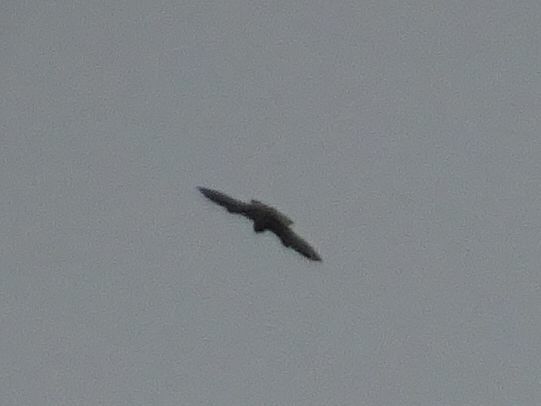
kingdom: Animalia
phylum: Chordata
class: Aves
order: Falconiformes
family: Falconidae
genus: Falco
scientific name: Falco tinnunculus
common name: Common kestrel
